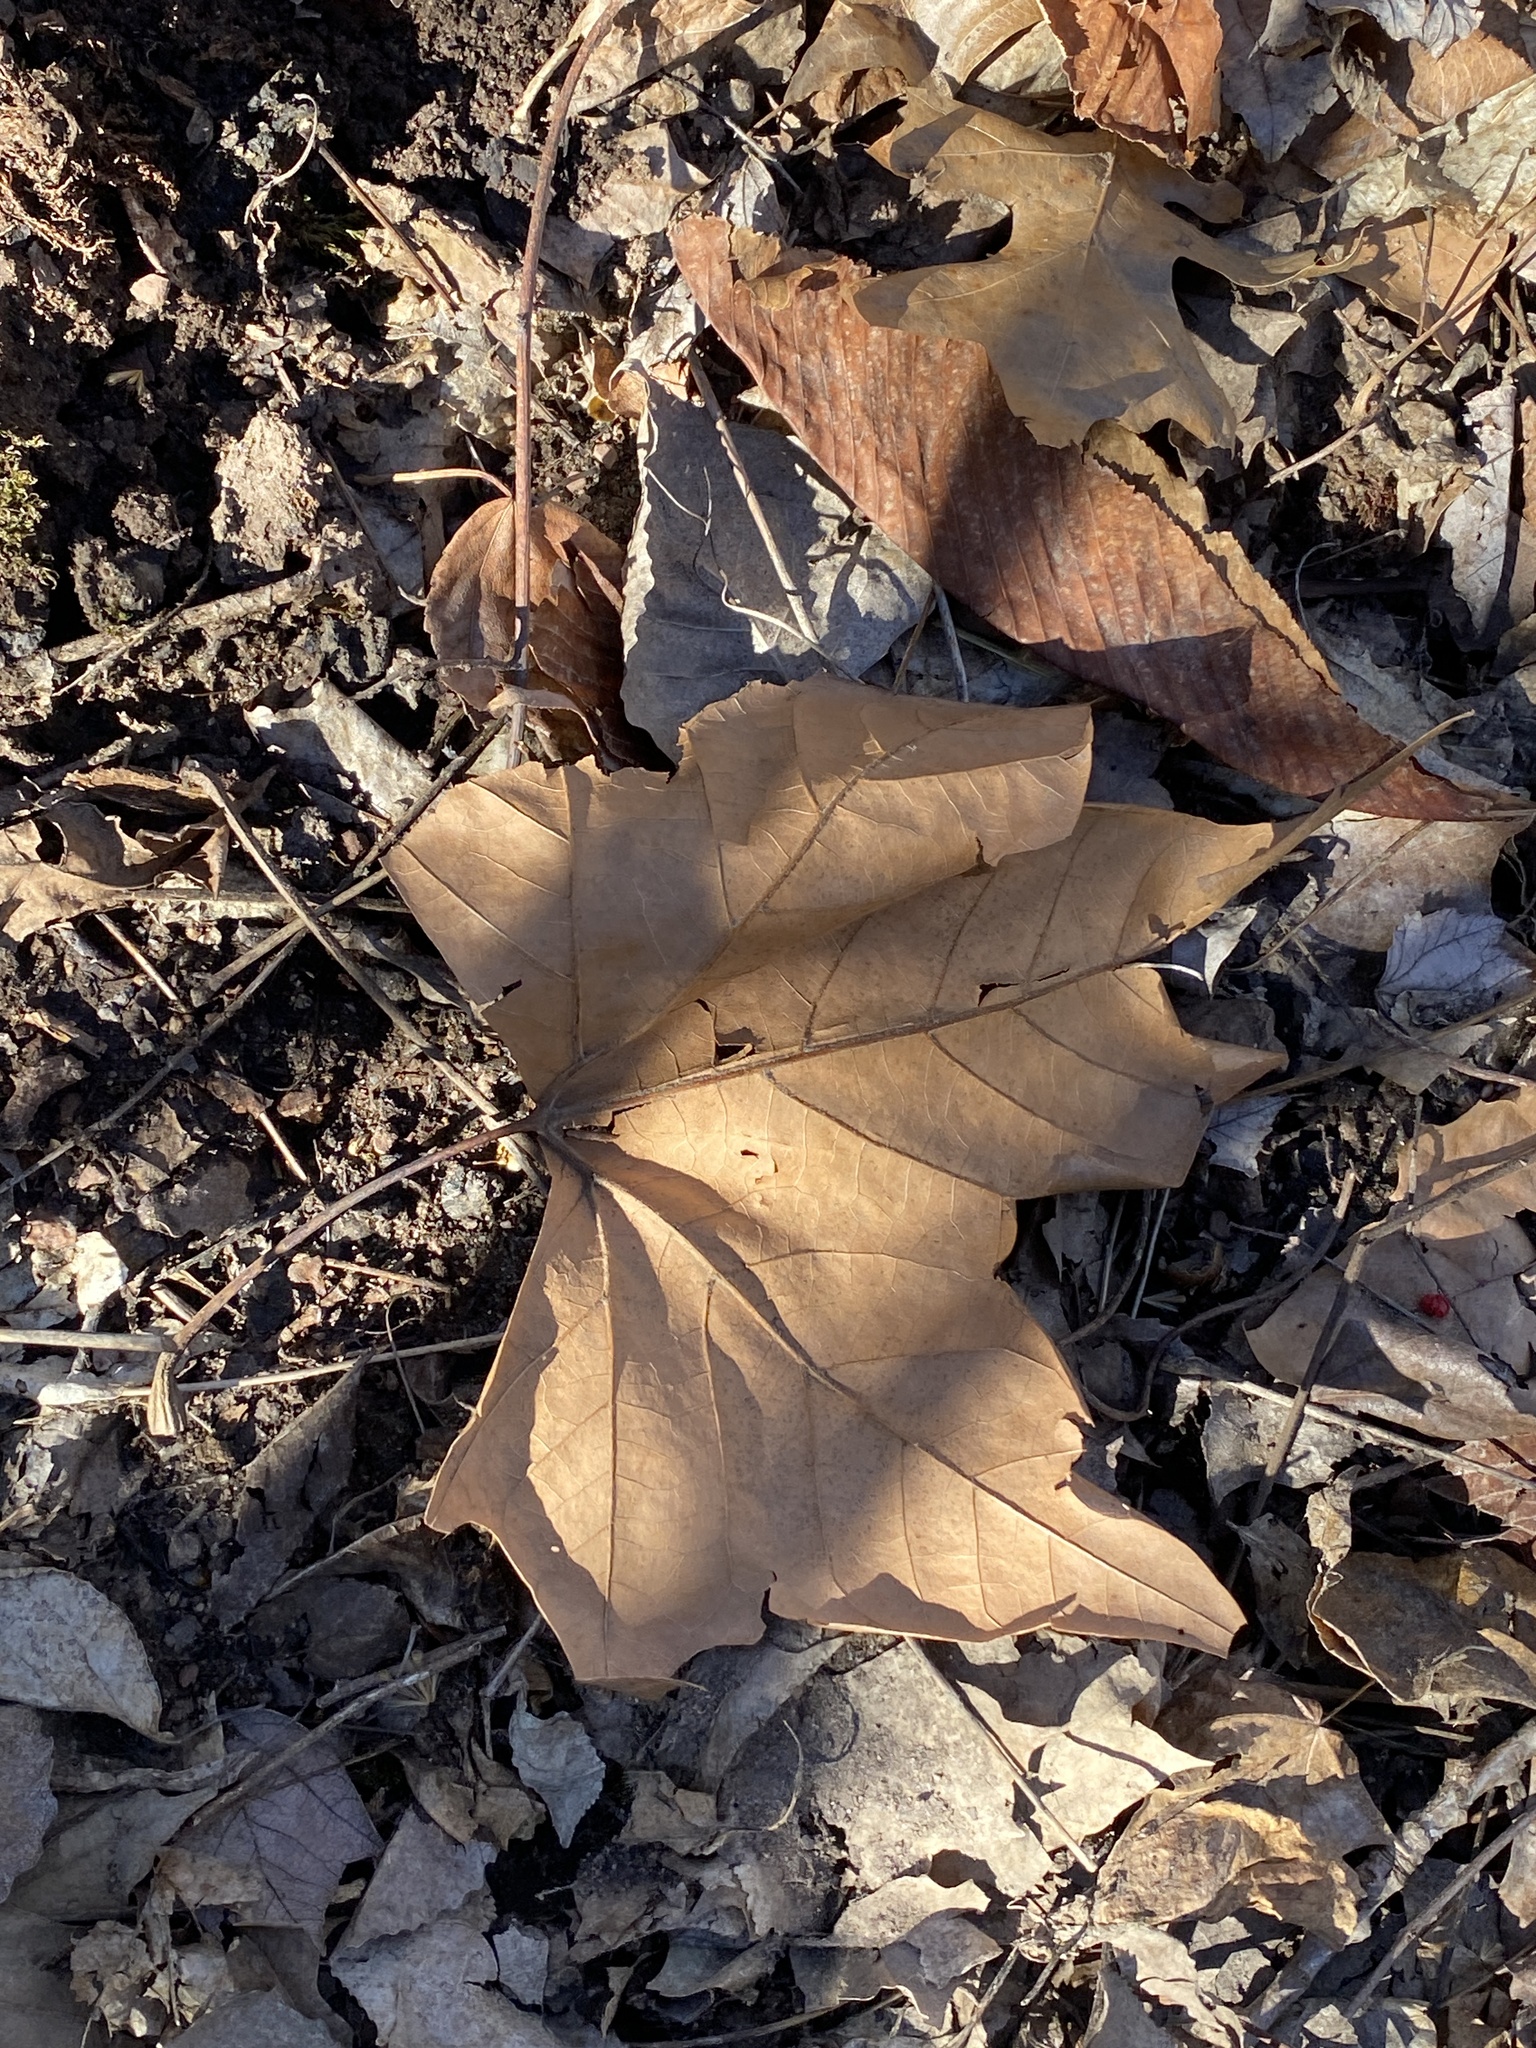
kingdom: Plantae
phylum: Tracheophyta
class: Magnoliopsida
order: Proteales
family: Platanaceae
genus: Platanus
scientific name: Platanus occidentalis
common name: American sycamore
